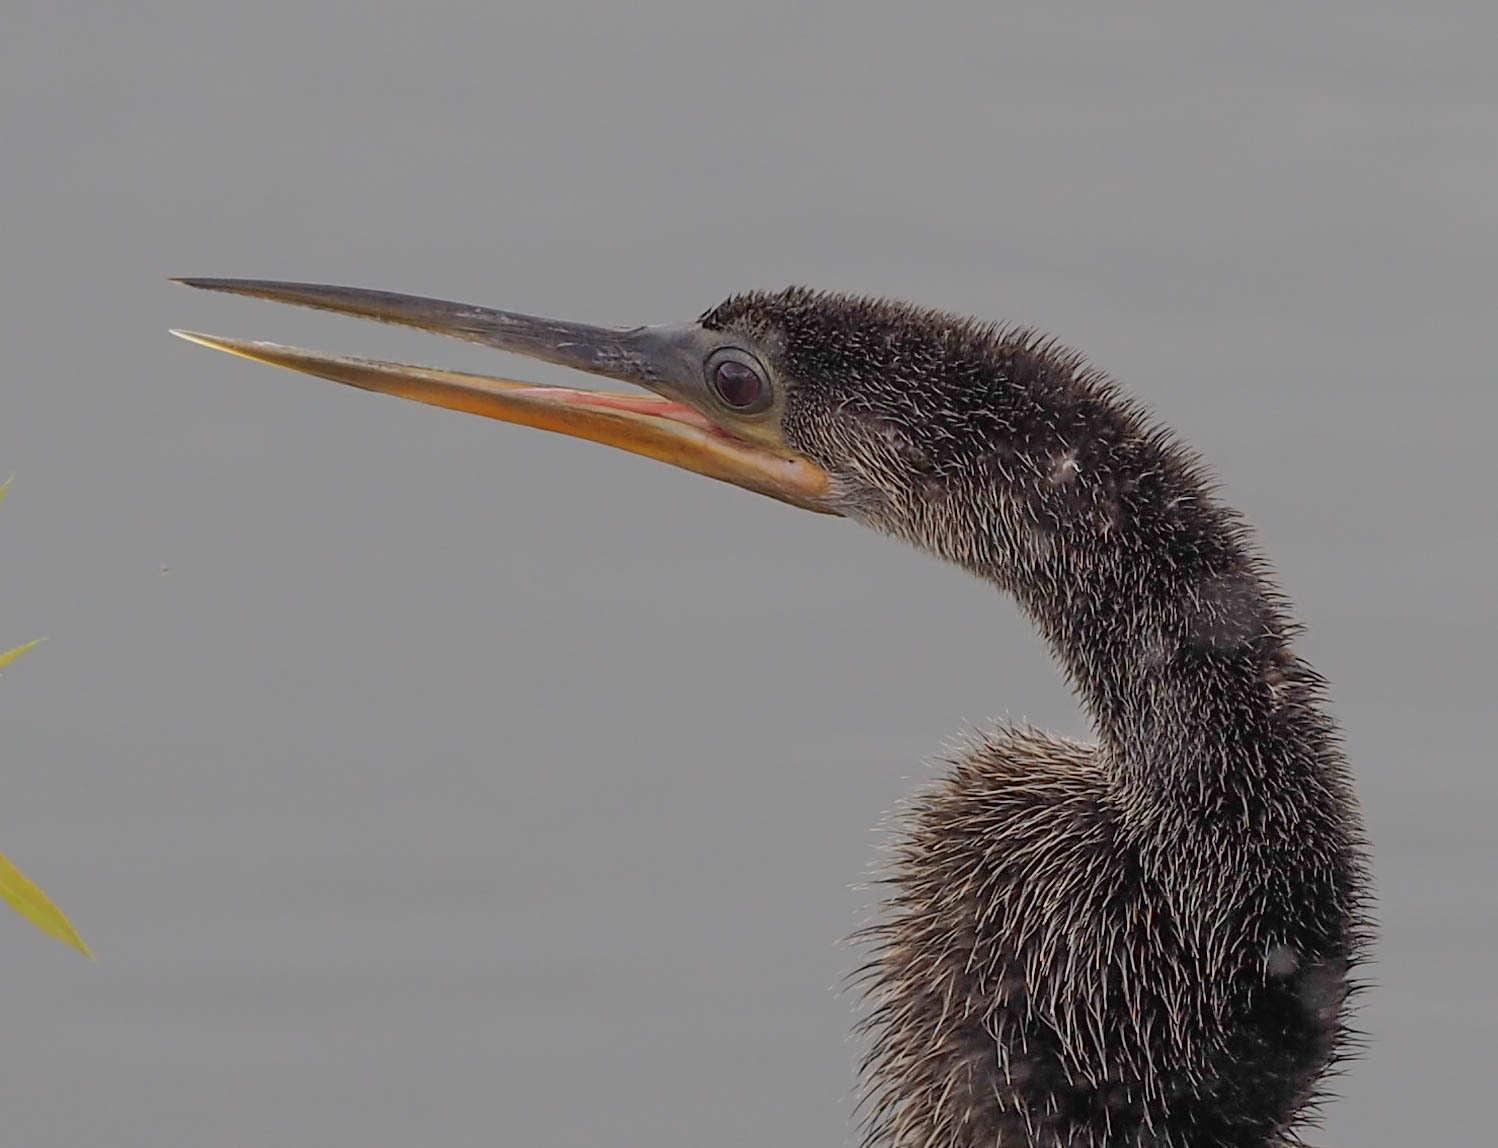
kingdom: Animalia
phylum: Chordata
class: Aves
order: Suliformes
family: Anhingidae
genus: Anhinga
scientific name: Anhinga anhinga
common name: Anhinga
